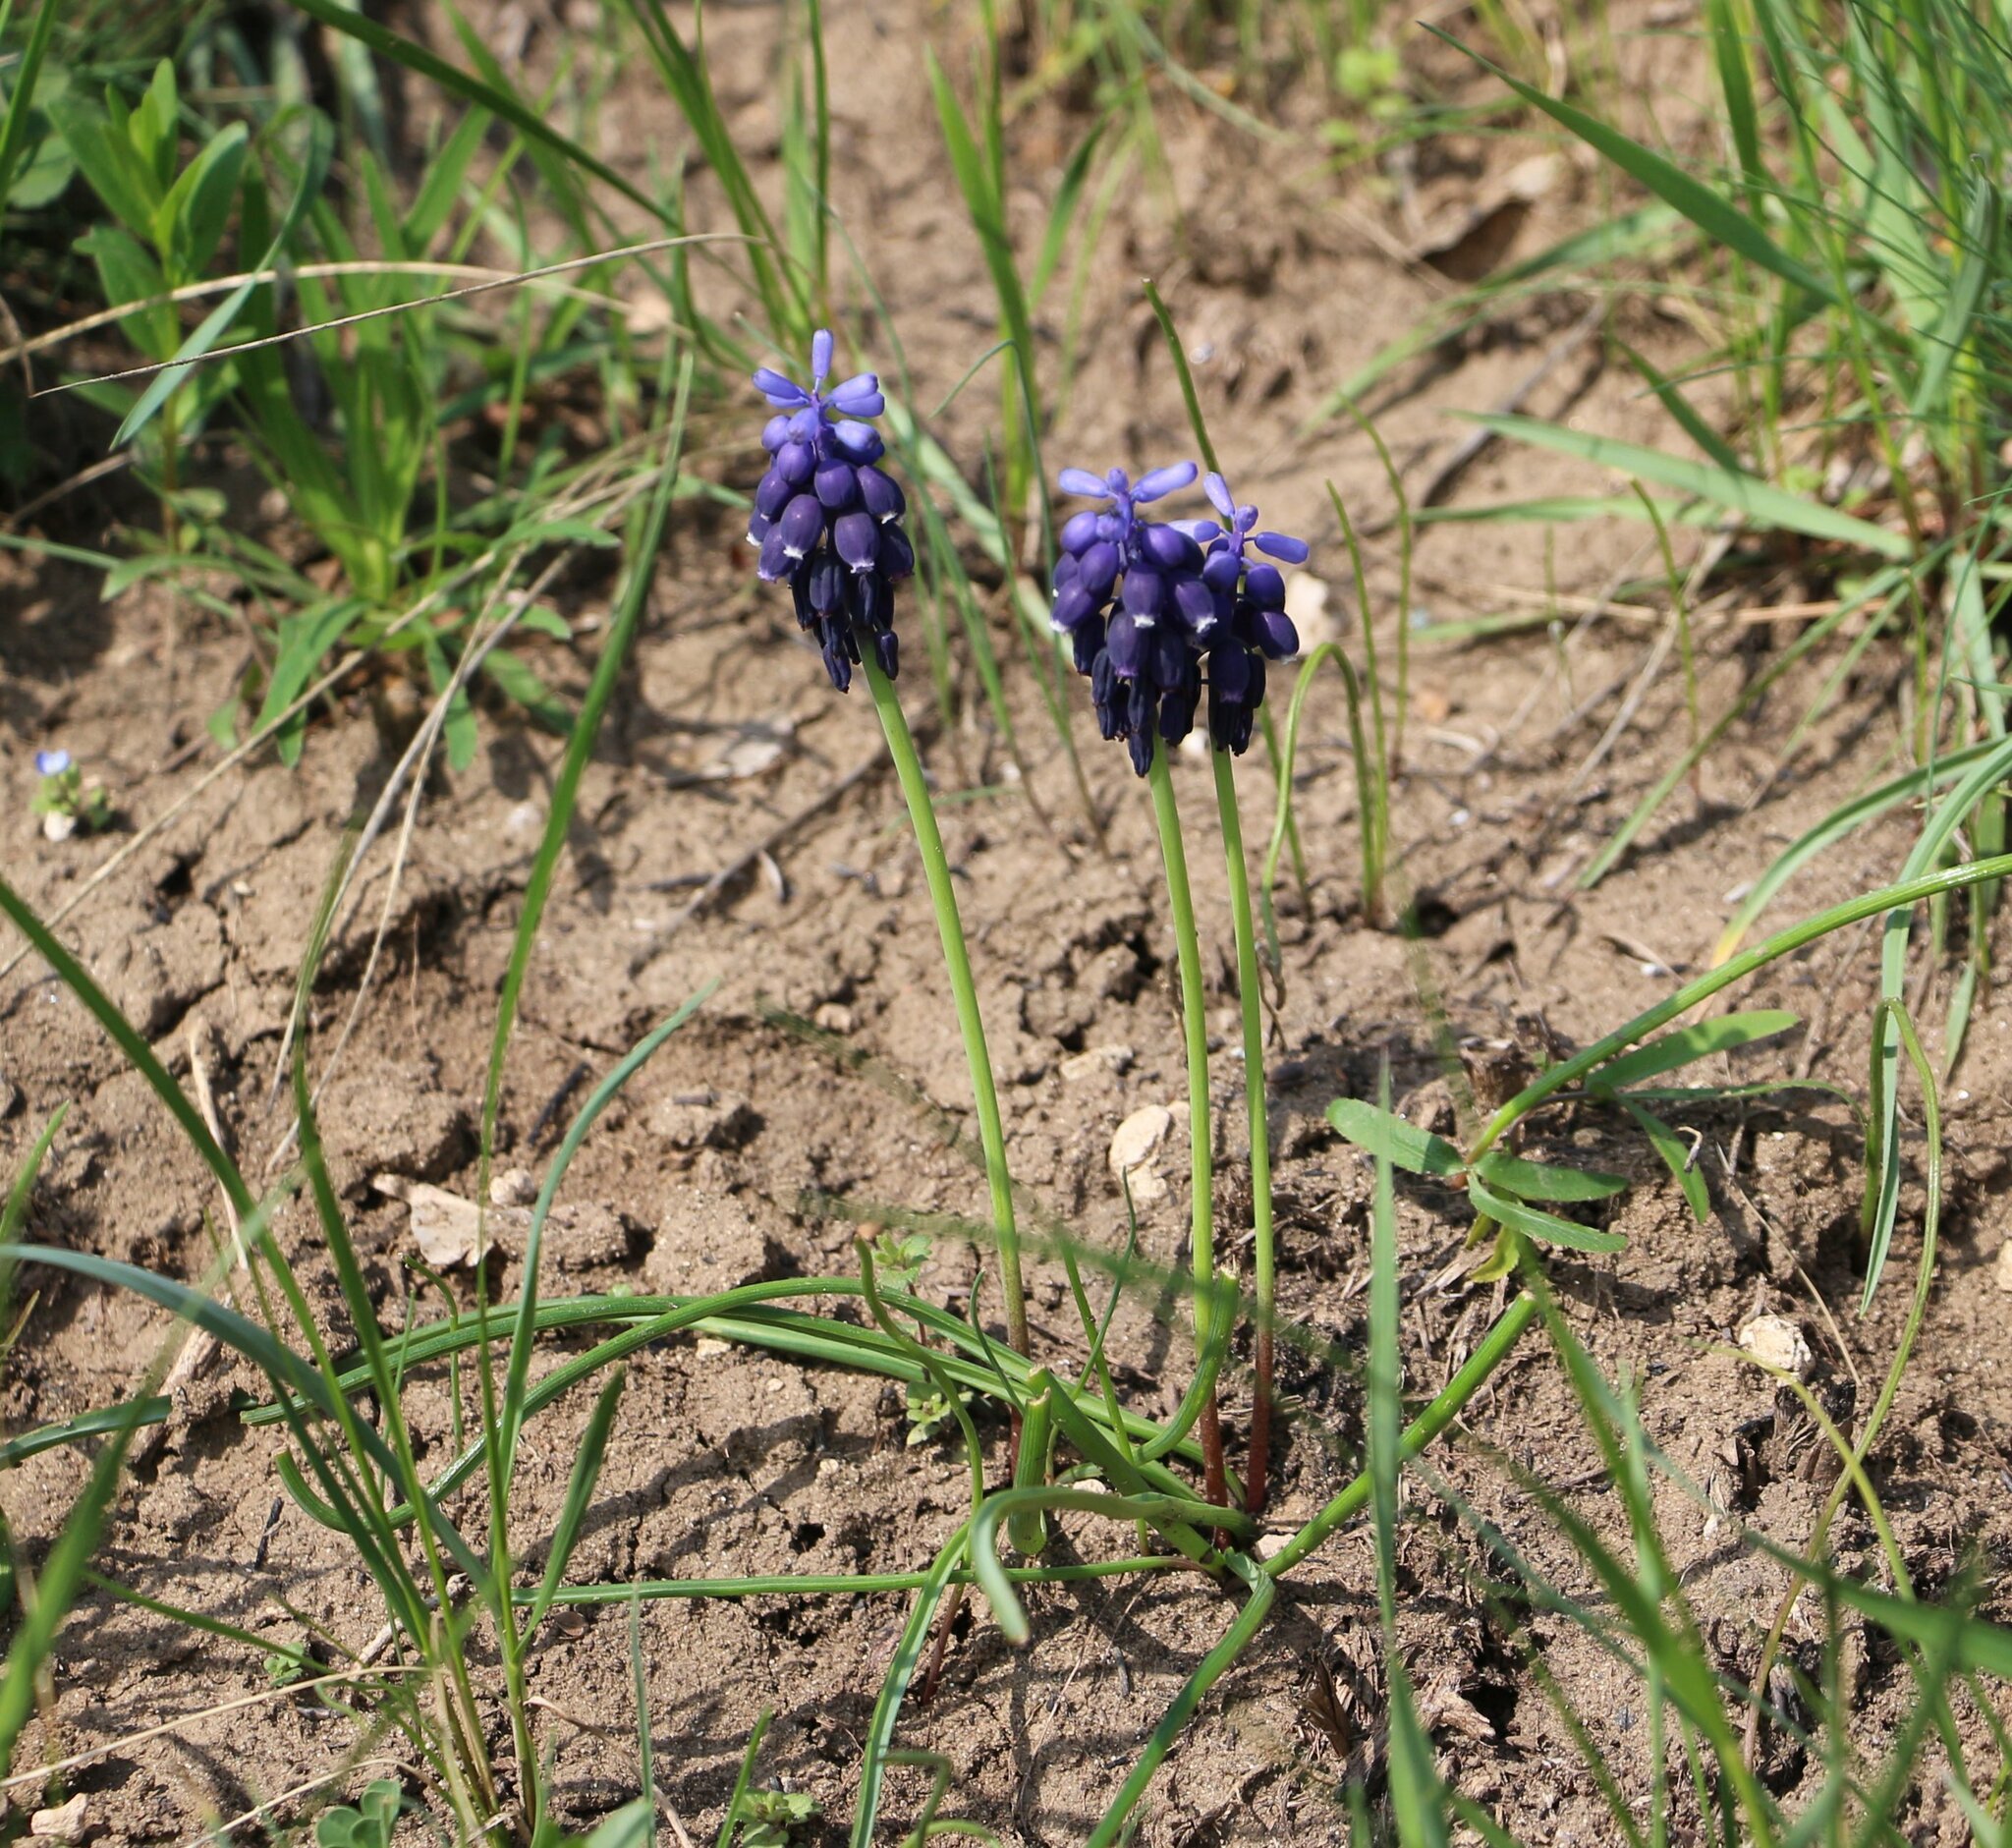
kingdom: Plantae
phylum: Tracheophyta
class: Liliopsida
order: Asparagales
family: Asparagaceae
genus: Muscari
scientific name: Muscari neglectum
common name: Grape-hyacinth
